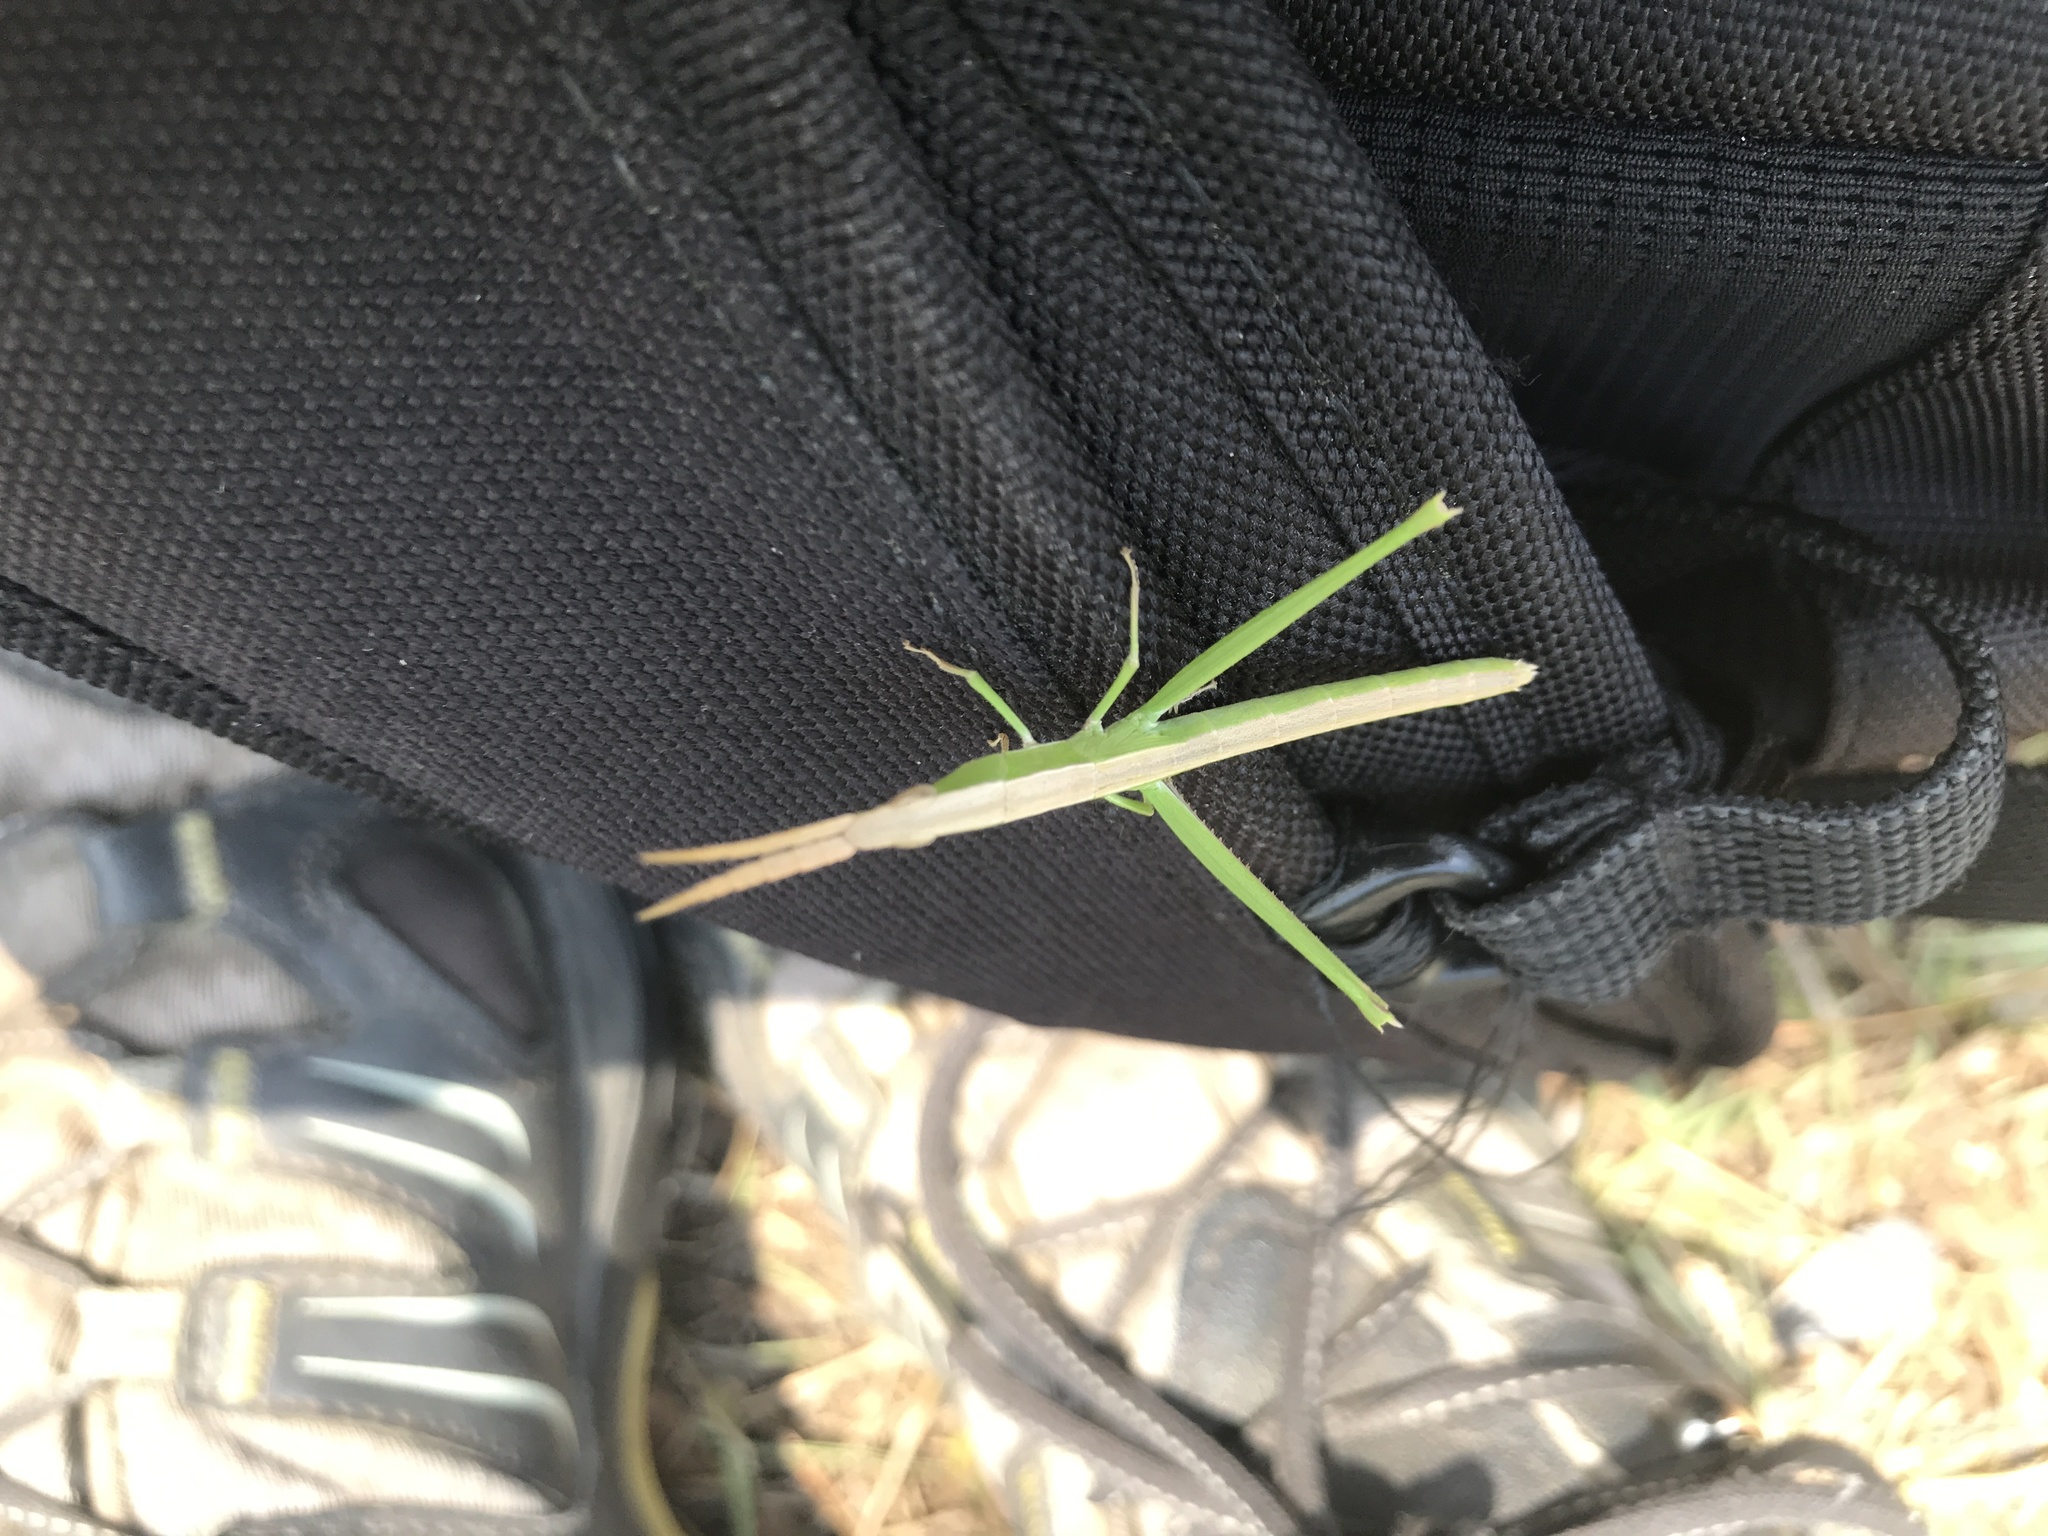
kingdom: Animalia
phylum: Arthropoda
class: Insecta
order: Orthoptera
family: Acrididae
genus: Achurum
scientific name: Achurum carinatum
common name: Long-headed toothpick grasshopper
